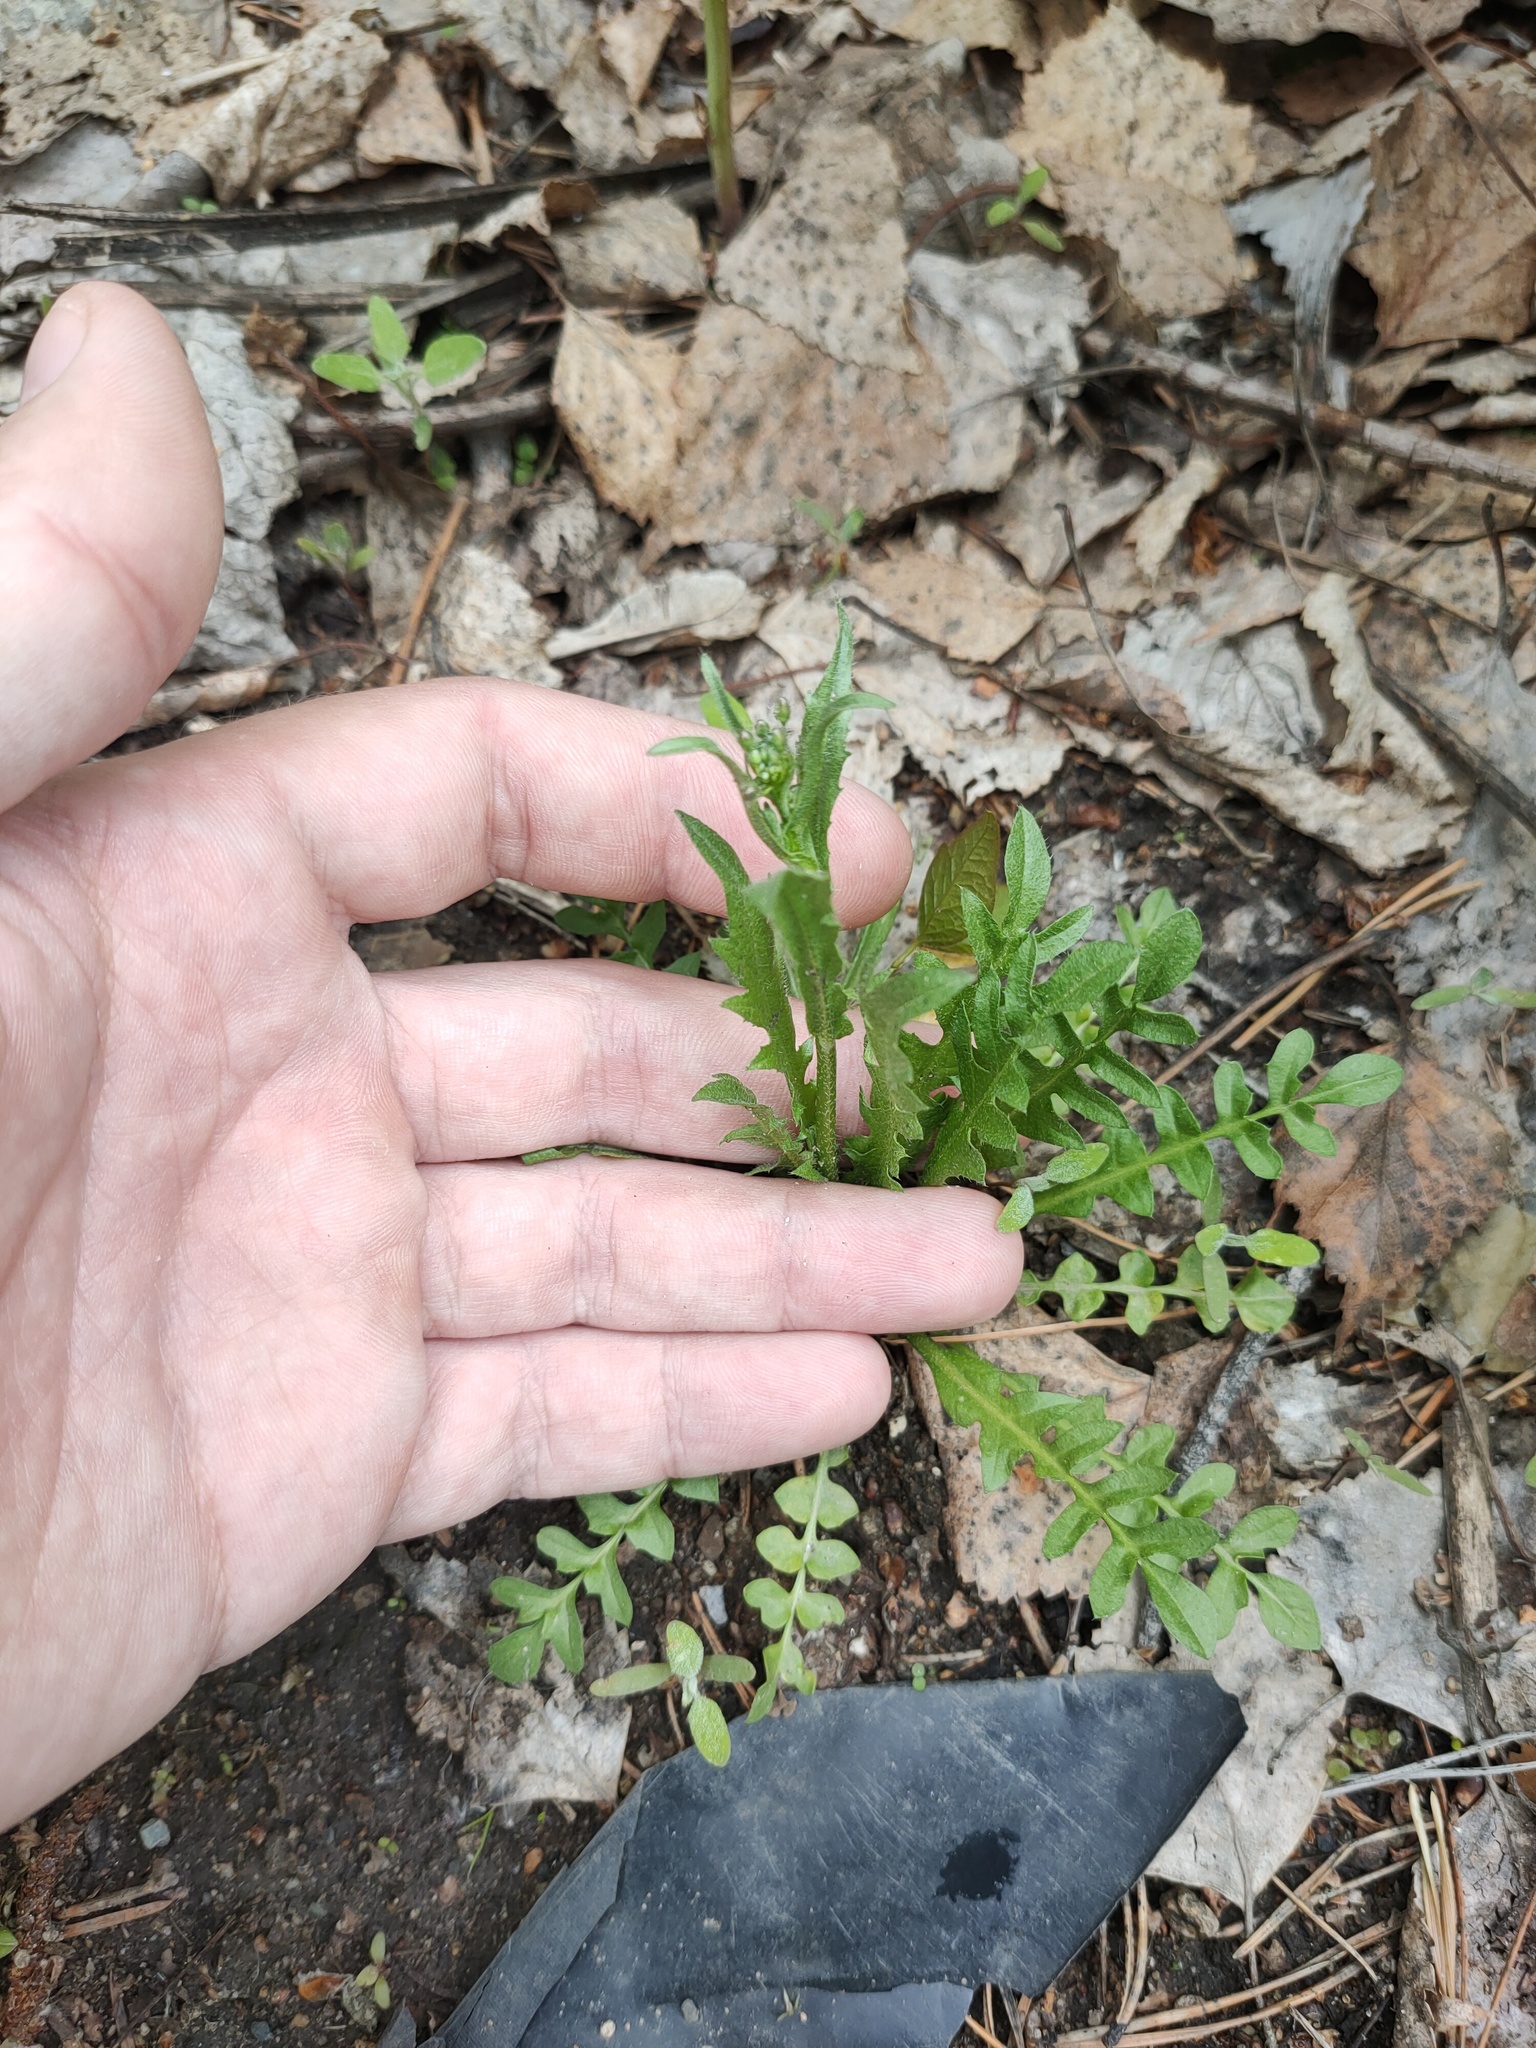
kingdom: Plantae
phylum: Tracheophyta
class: Magnoliopsida
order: Brassicales
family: Brassicaceae
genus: Capsella
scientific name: Capsella bursa-pastoris
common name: Shepherd's purse
